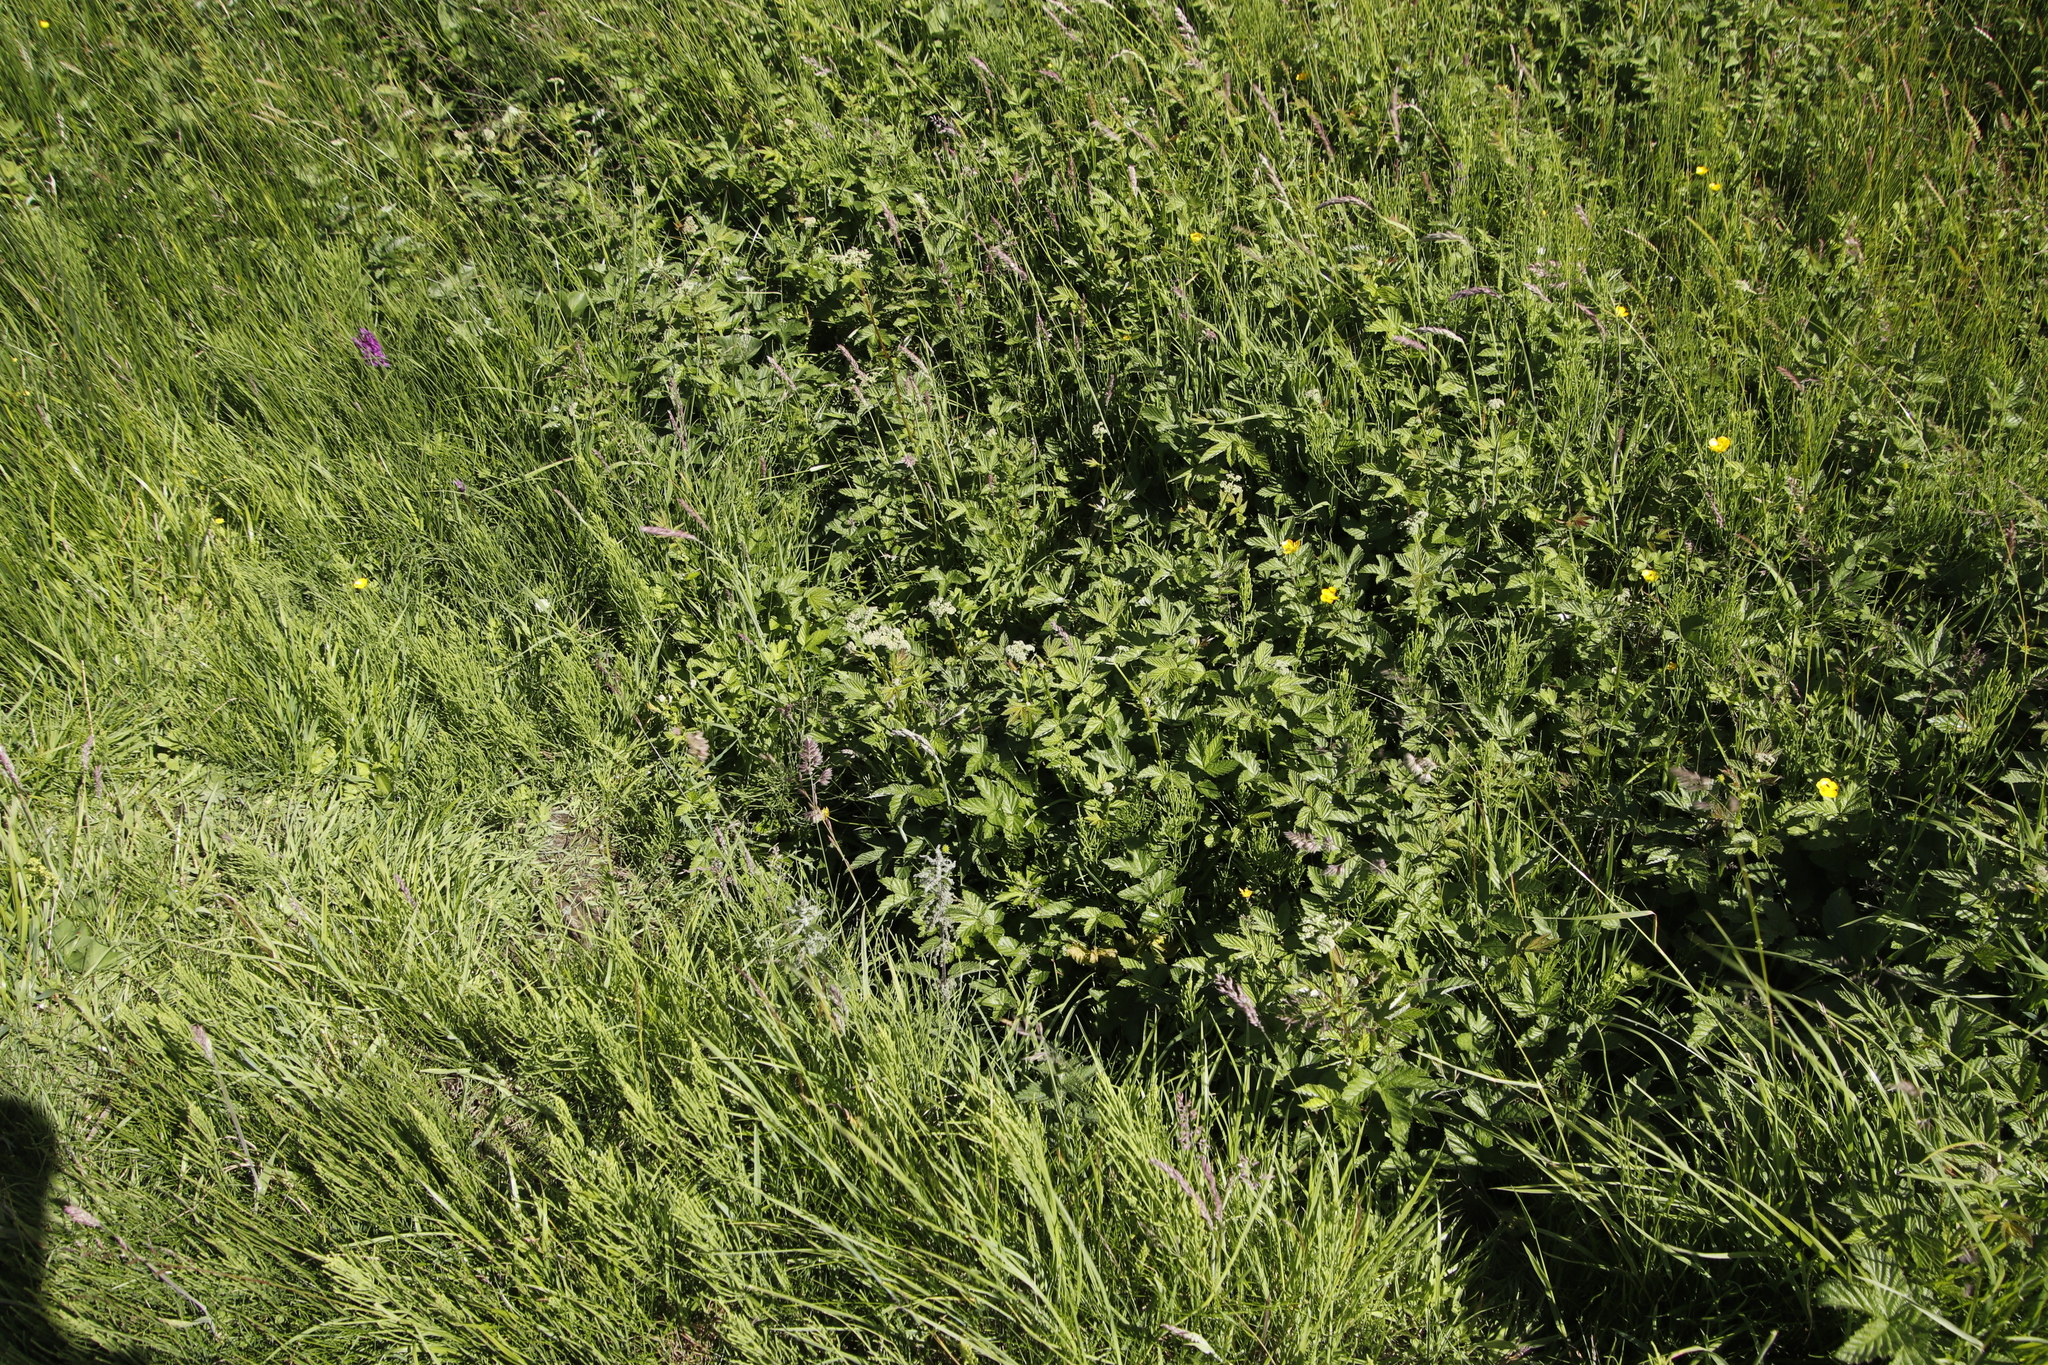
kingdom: Plantae
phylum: Tracheophyta
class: Magnoliopsida
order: Rosales
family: Rosaceae
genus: Filipendula
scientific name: Filipendula ulmaria
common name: Meadowsweet
